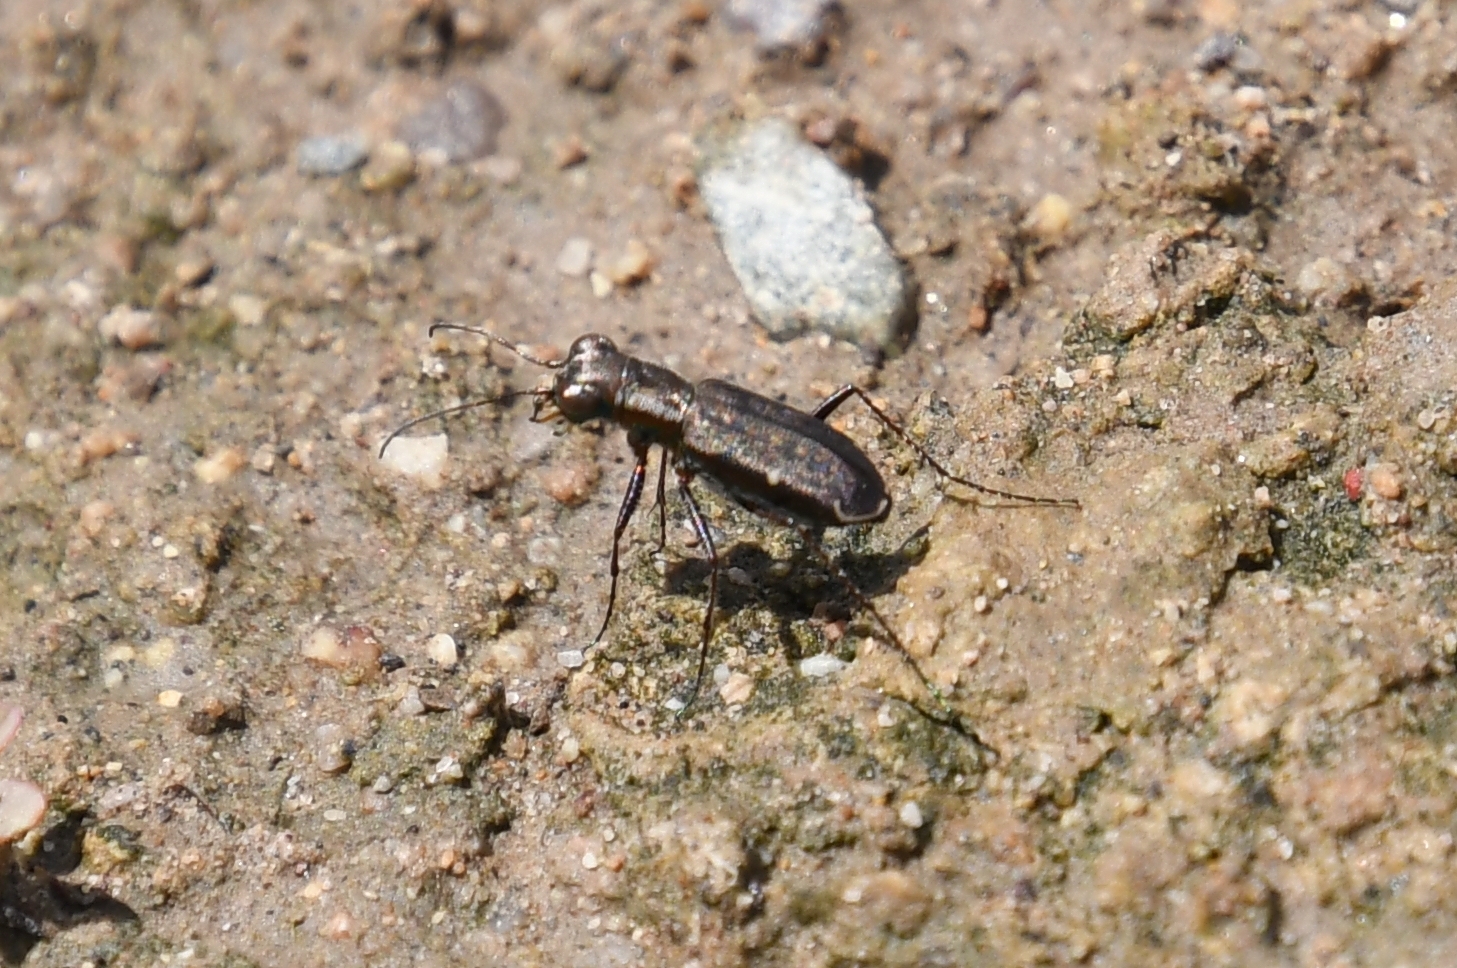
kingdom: Animalia
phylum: Arthropoda
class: Insecta
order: Coleoptera
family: Carabidae
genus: Brasiella
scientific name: Brasiella viridisticta
